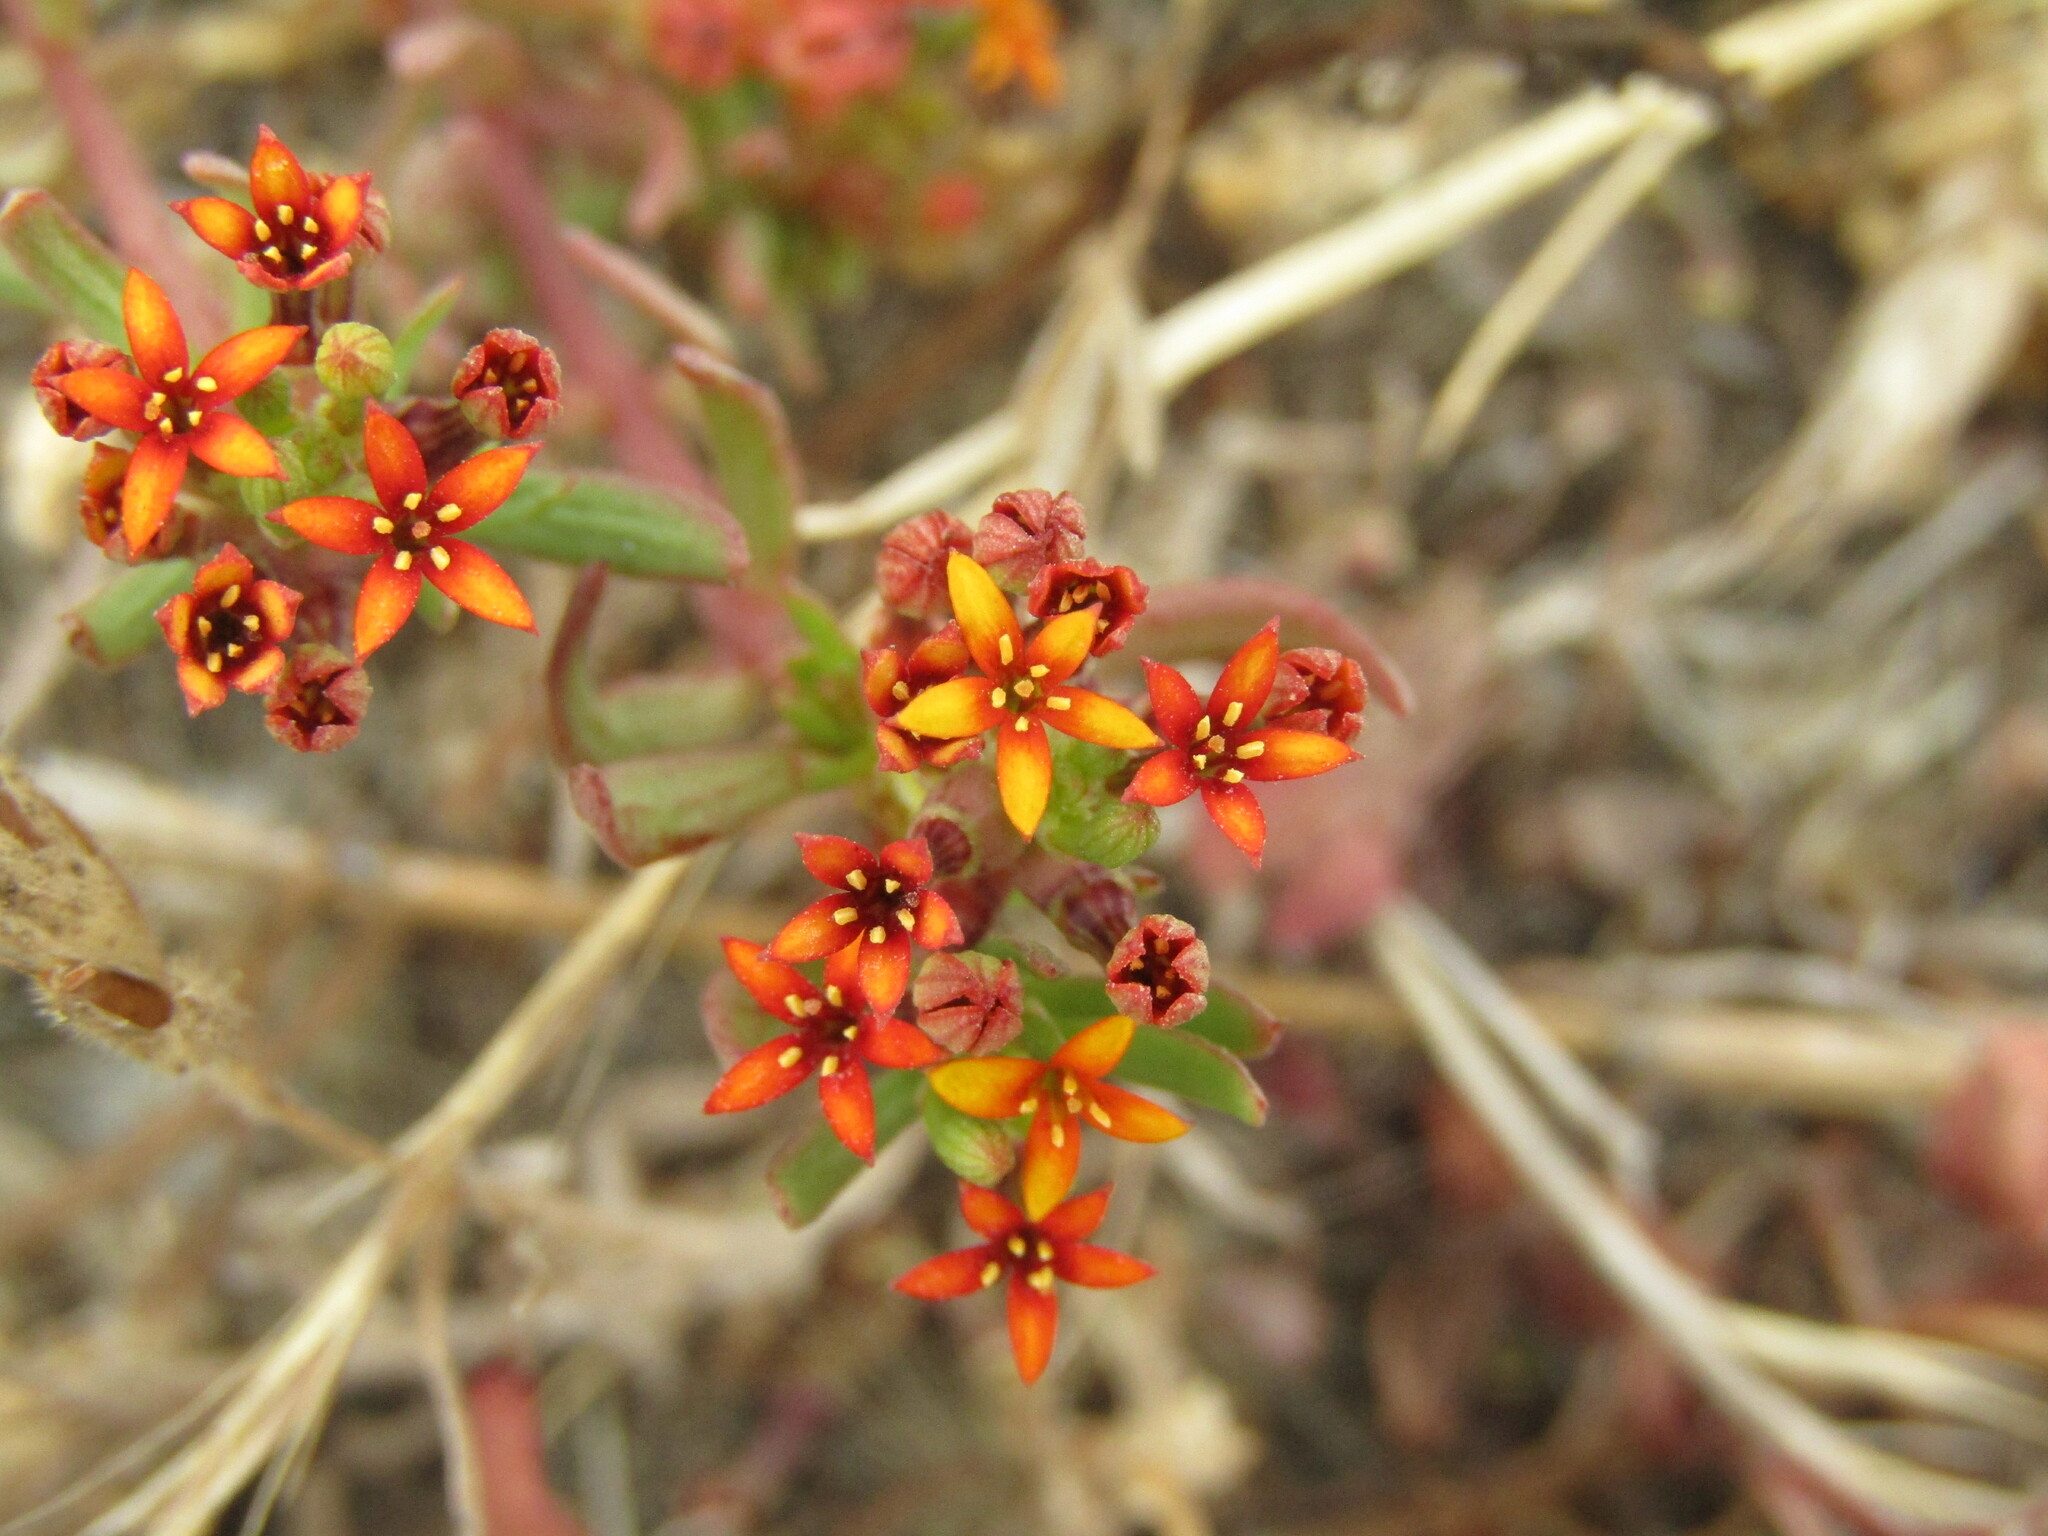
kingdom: Plantae
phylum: Tracheophyta
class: Magnoliopsida
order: Santalales
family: Schoepfiaceae
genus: Quinchamalium
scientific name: Quinchamalium chilense
